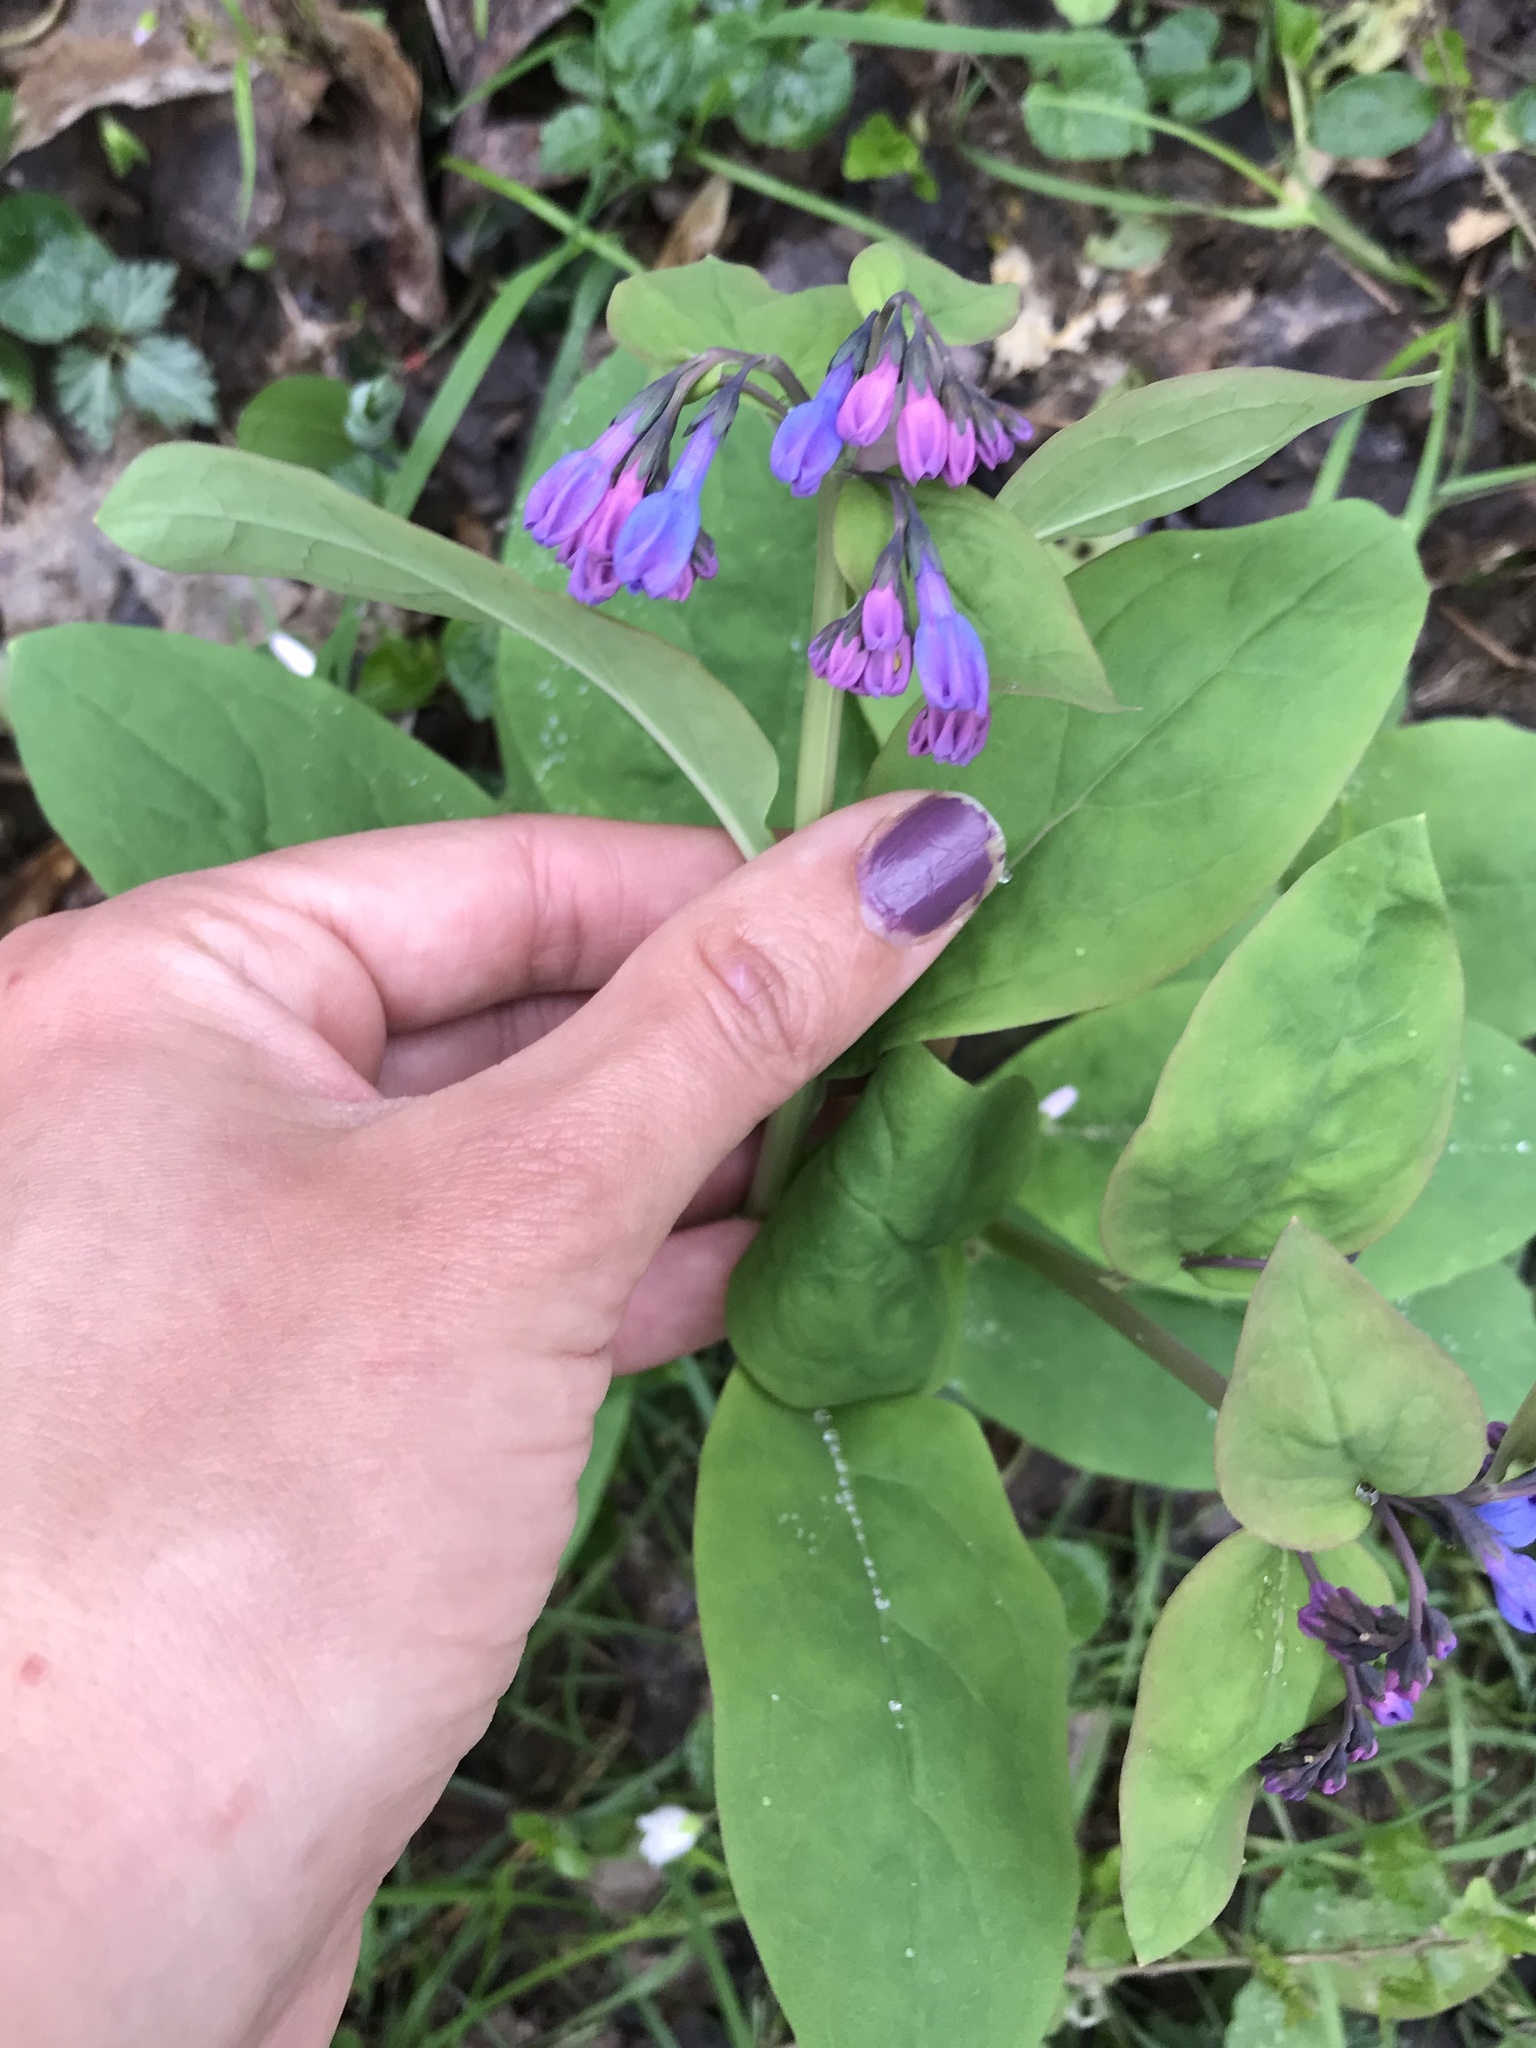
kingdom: Plantae
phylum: Tracheophyta
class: Magnoliopsida
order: Boraginales
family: Boraginaceae
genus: Mertensia
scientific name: Mertensia virginica
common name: Virginia bluebells
